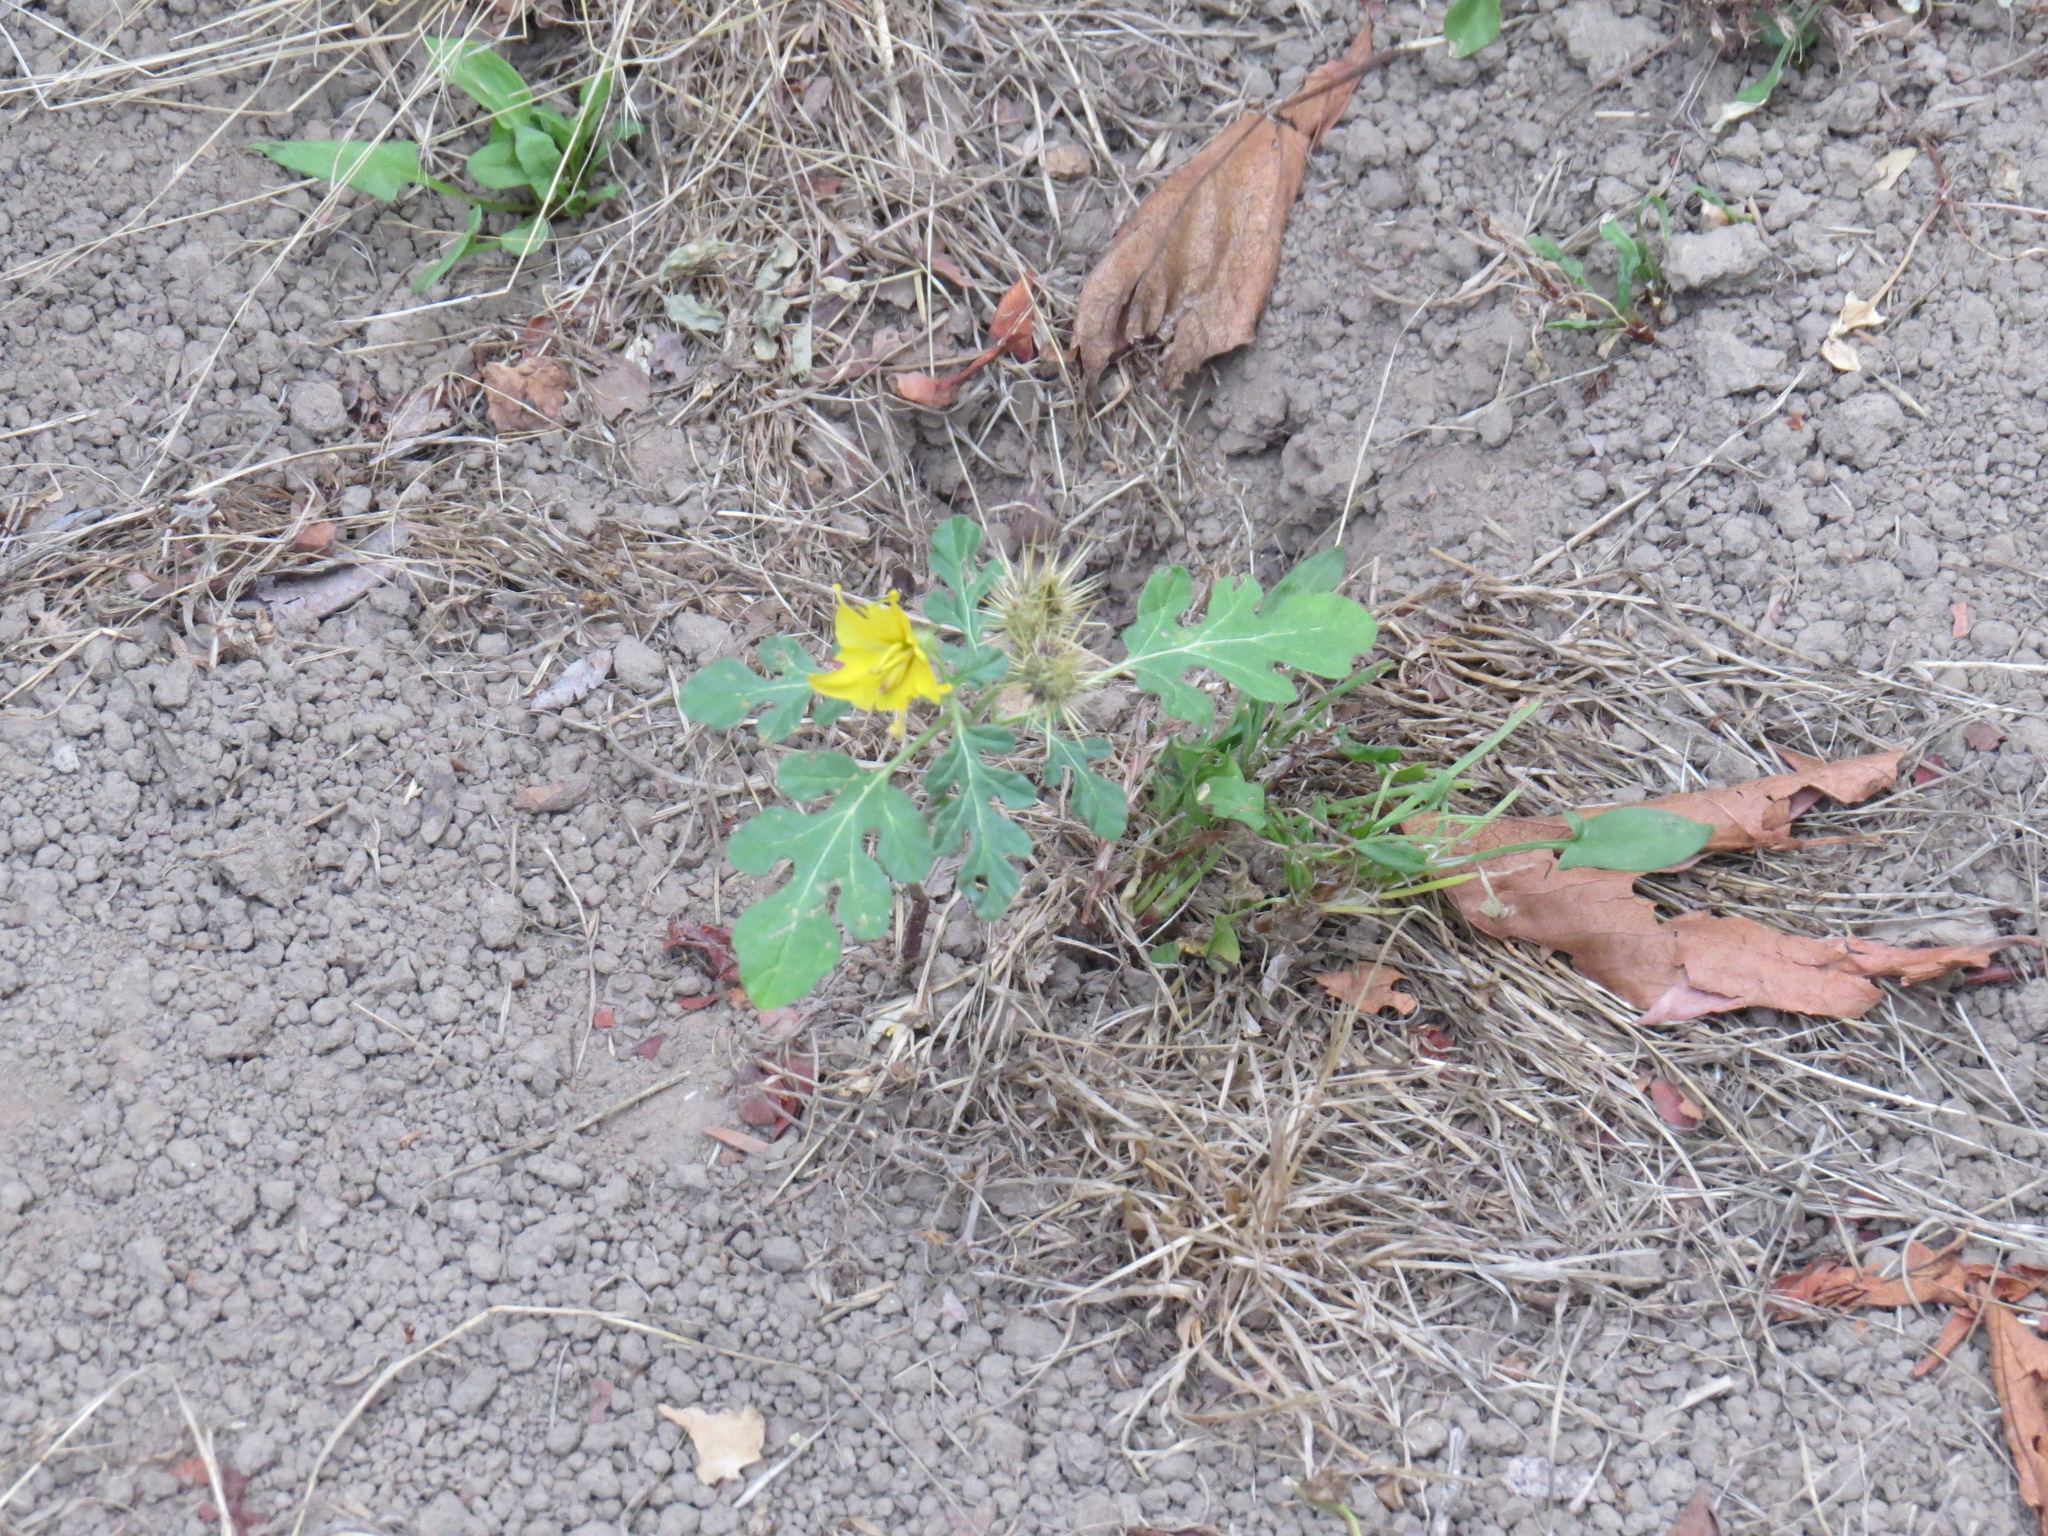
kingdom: Plantae
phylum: Tracheophyta
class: Magnoliopsida
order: Solanales
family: Solanaceae
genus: Solanum
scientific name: Solanum angustifolium
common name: Buffalobur nightshade
